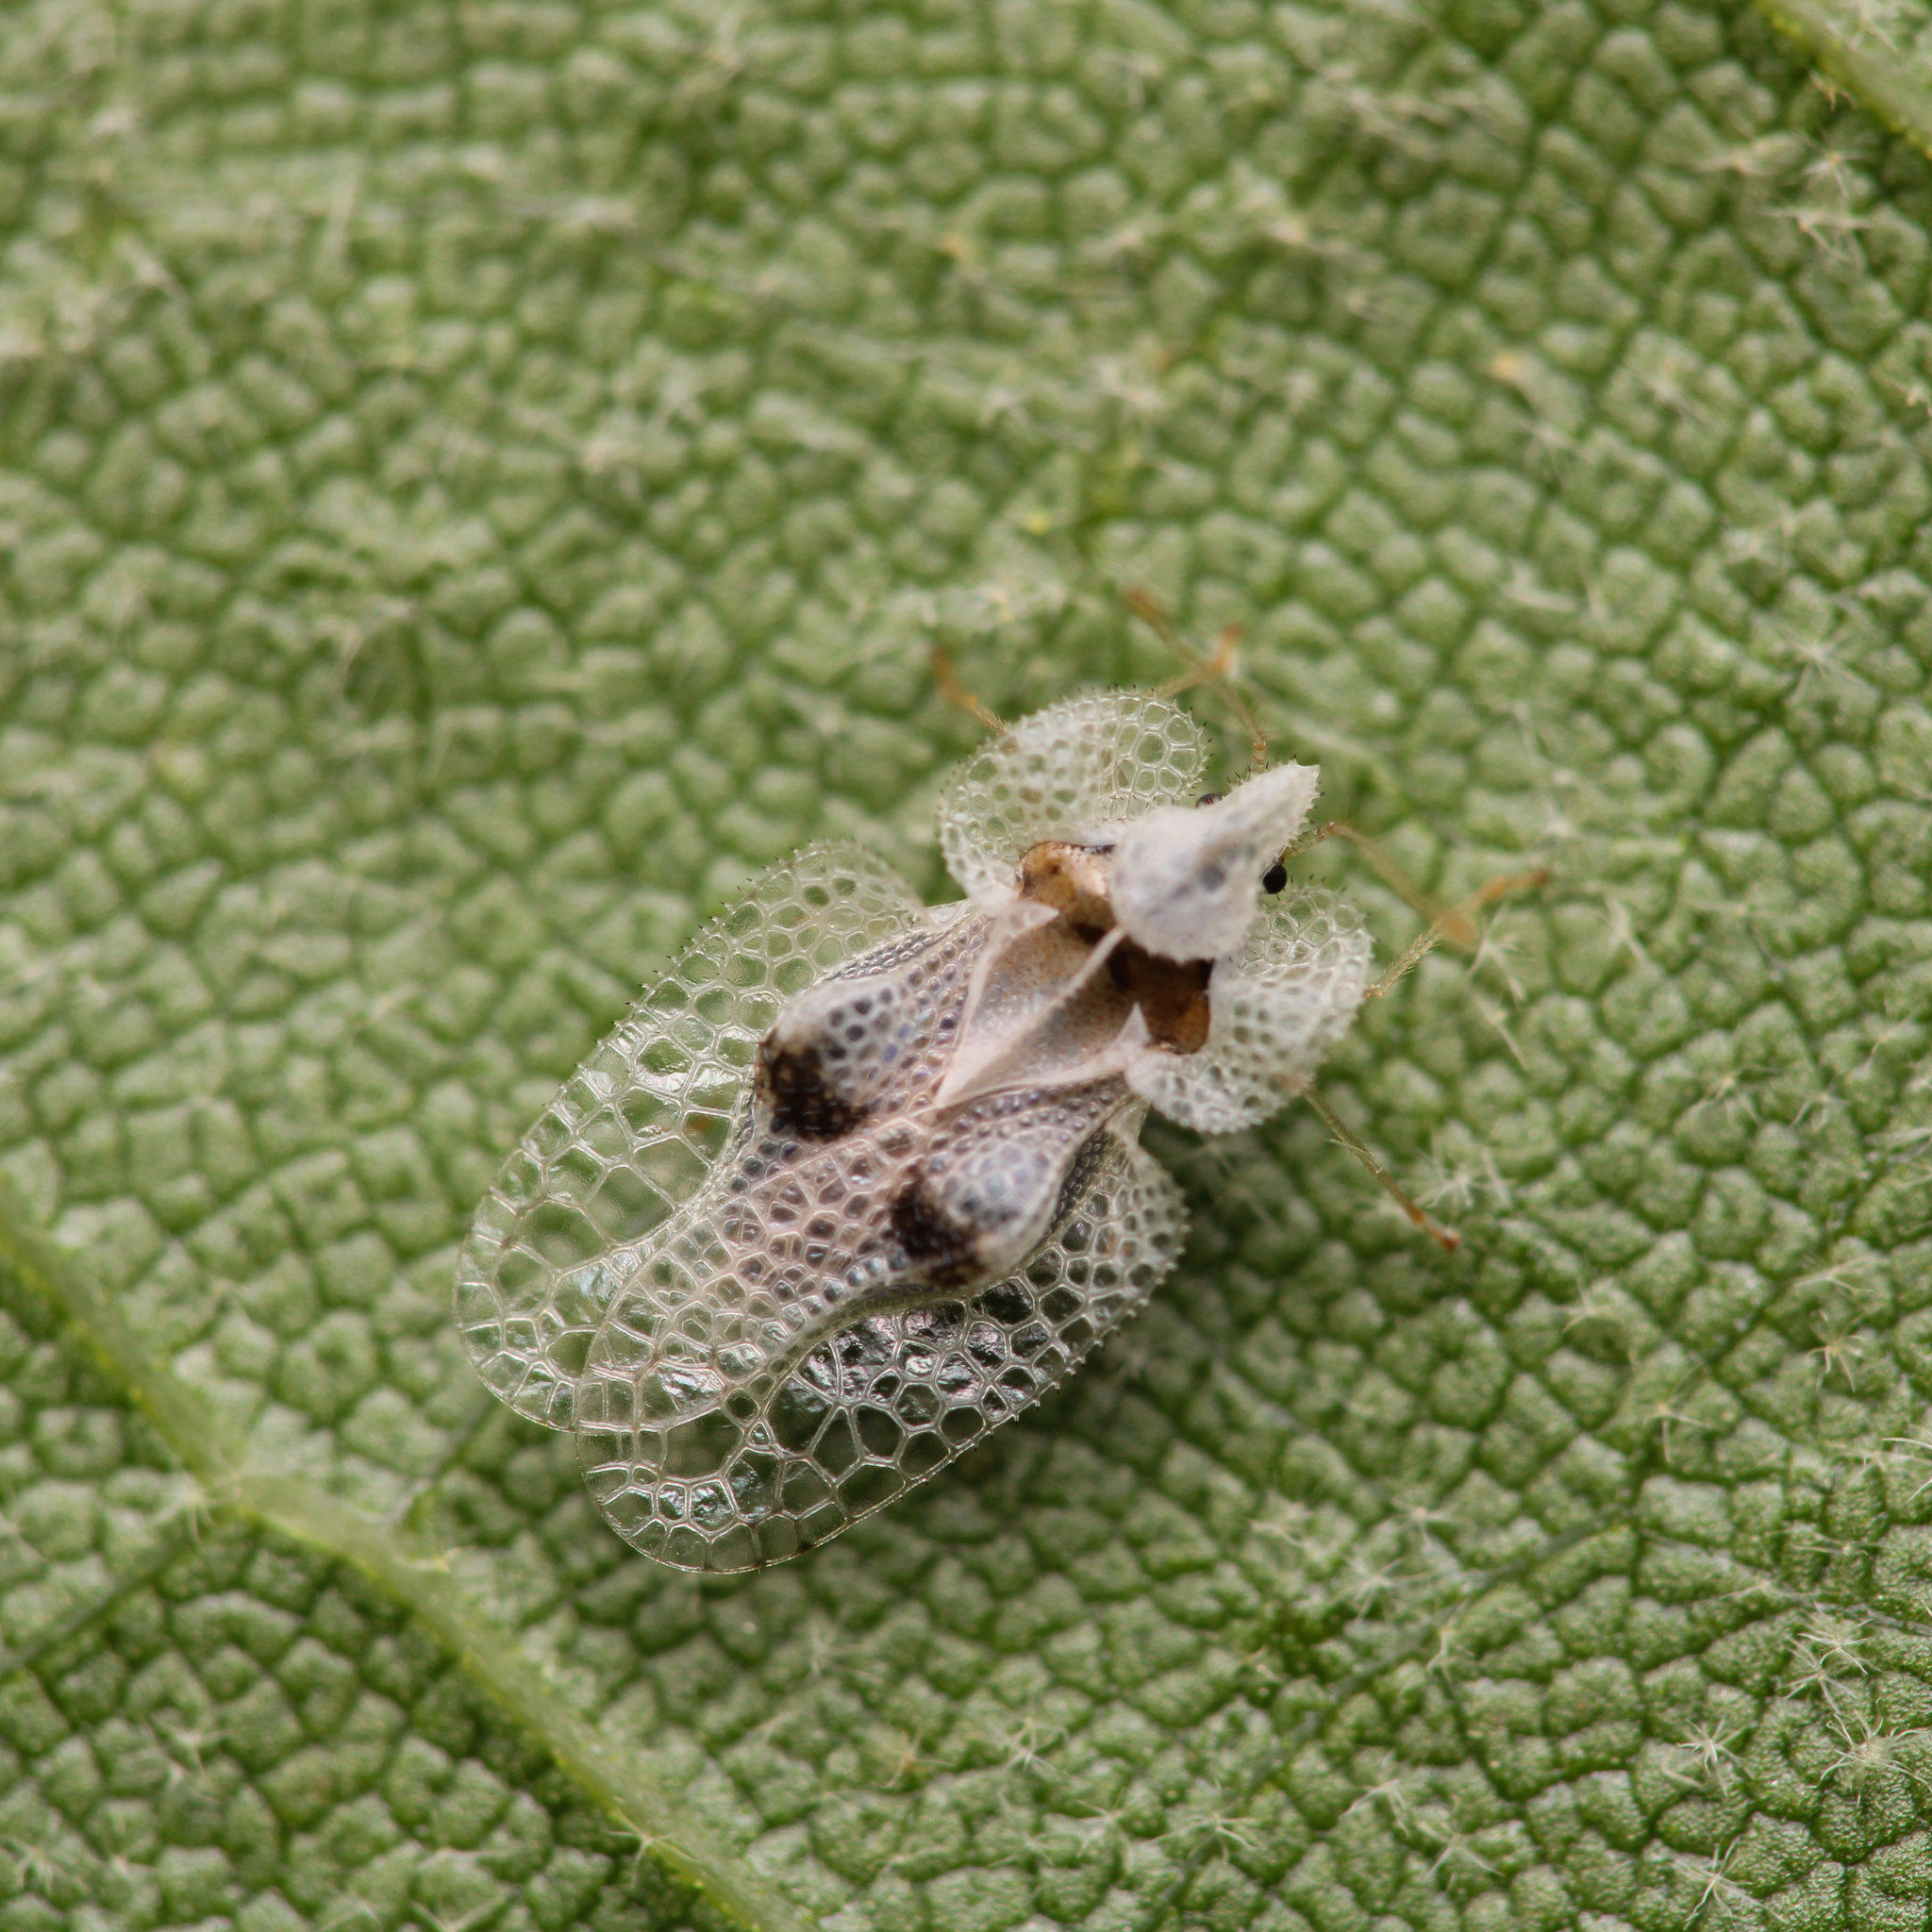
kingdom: Animalia
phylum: Arthropoda
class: Insecta
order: Hemiptera
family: Tingidae
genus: Corythucha
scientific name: Corythucha ciliata
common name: Sycamore lace bug
